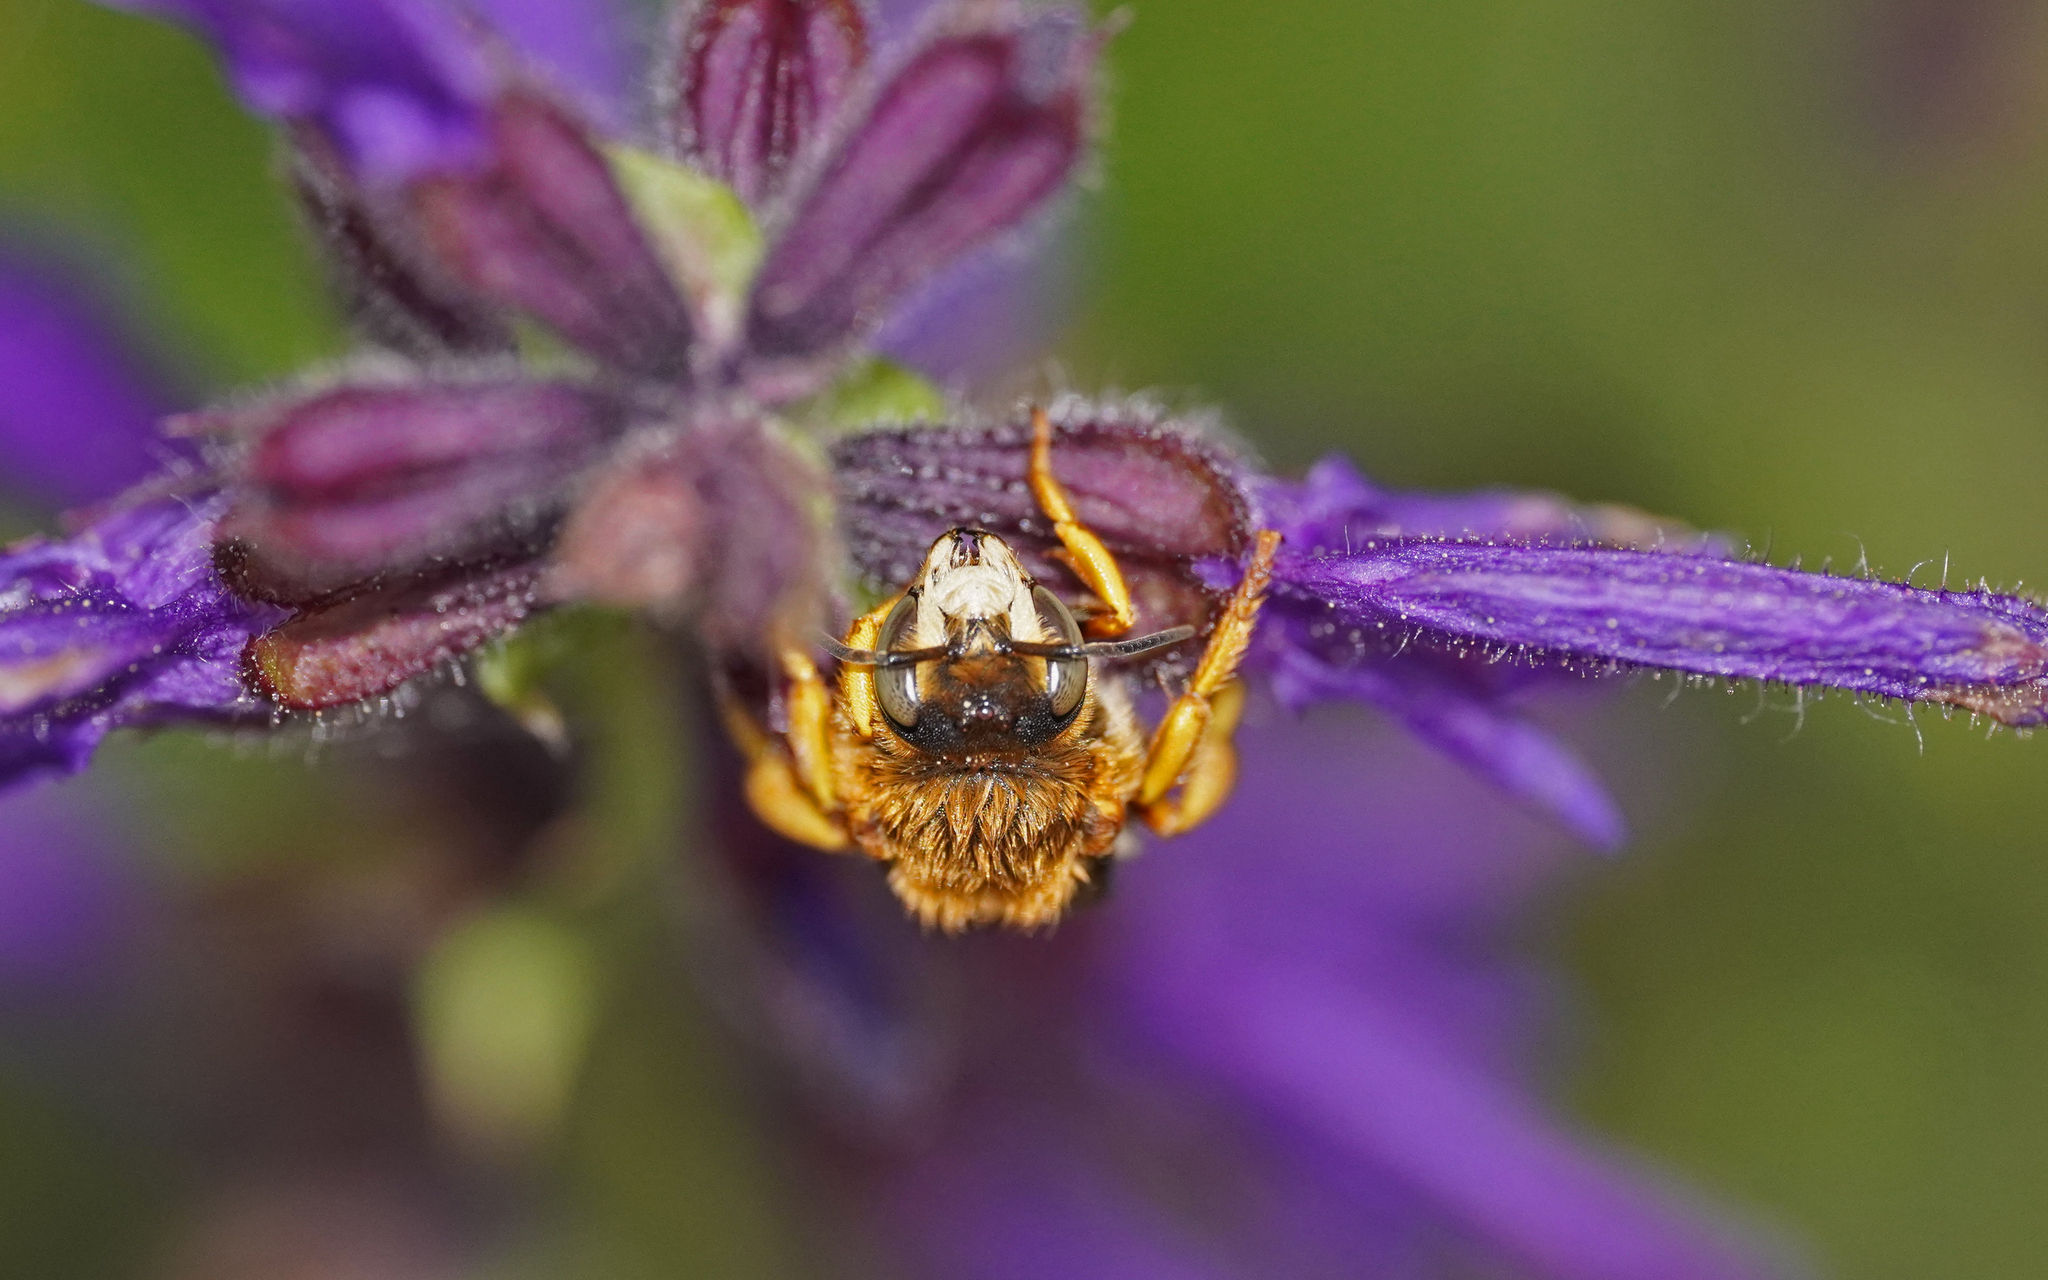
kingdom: Animalia
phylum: Arthropoda
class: Insecta
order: Hymenoptera
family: Megachilidae
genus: Rhodanthidium
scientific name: Rhodanthidium septemdentatum
